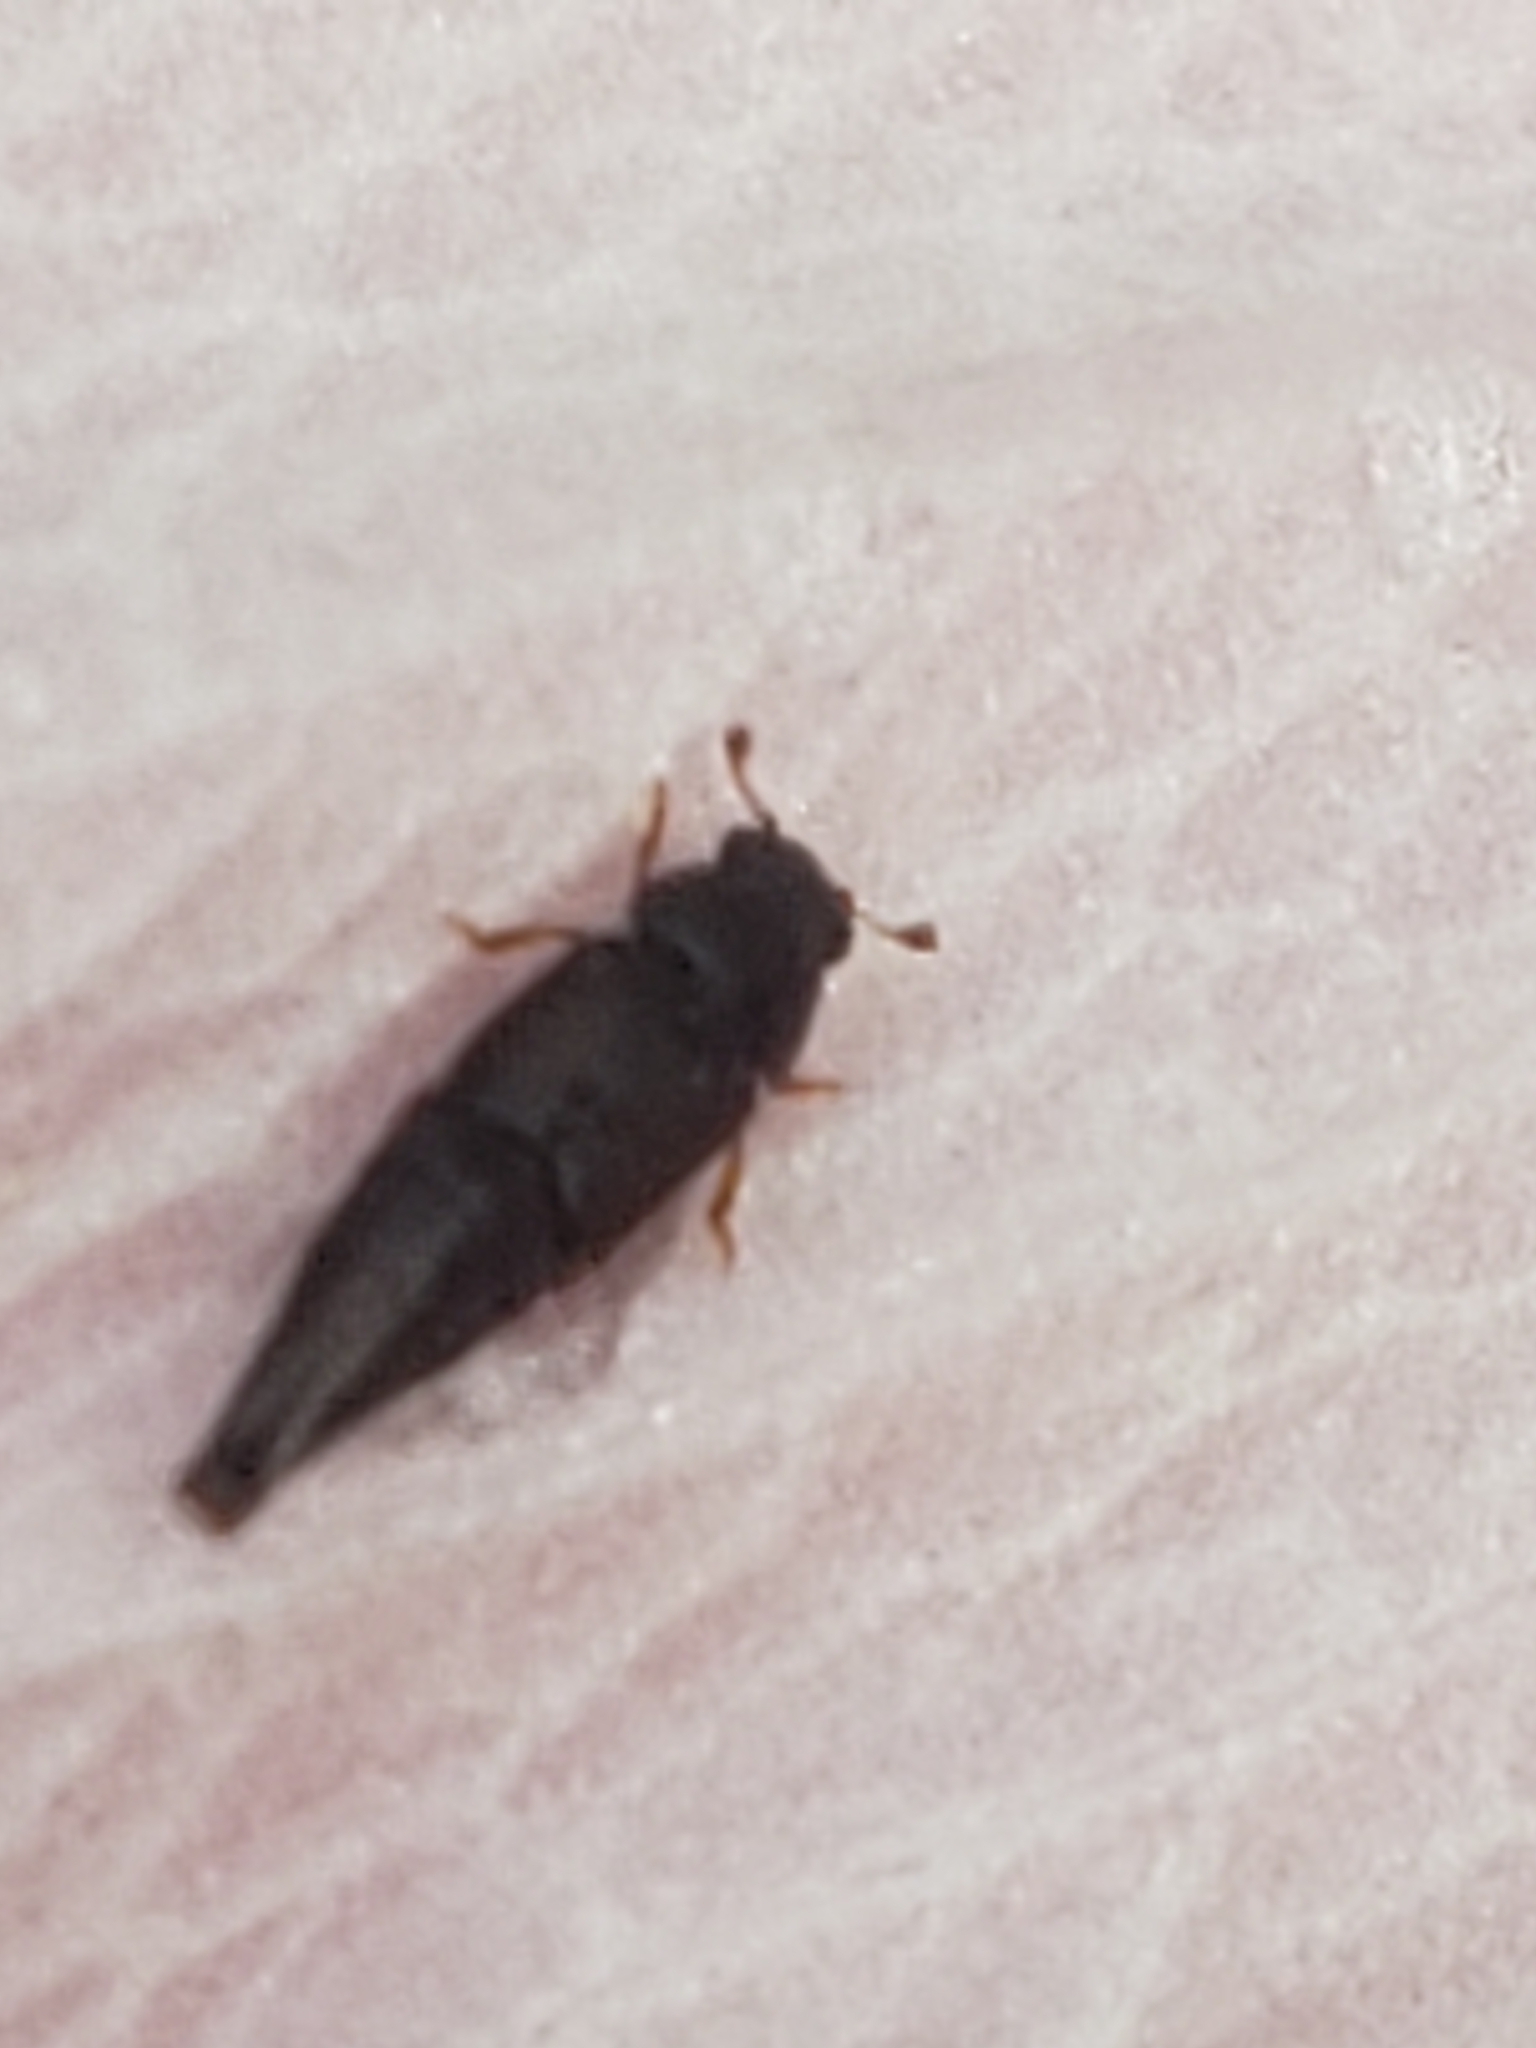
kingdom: Animalia
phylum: Arthropoda
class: Insecta
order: Coleoptera
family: Nitidulidae
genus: Conotelus
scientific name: Conotelus obscurus
